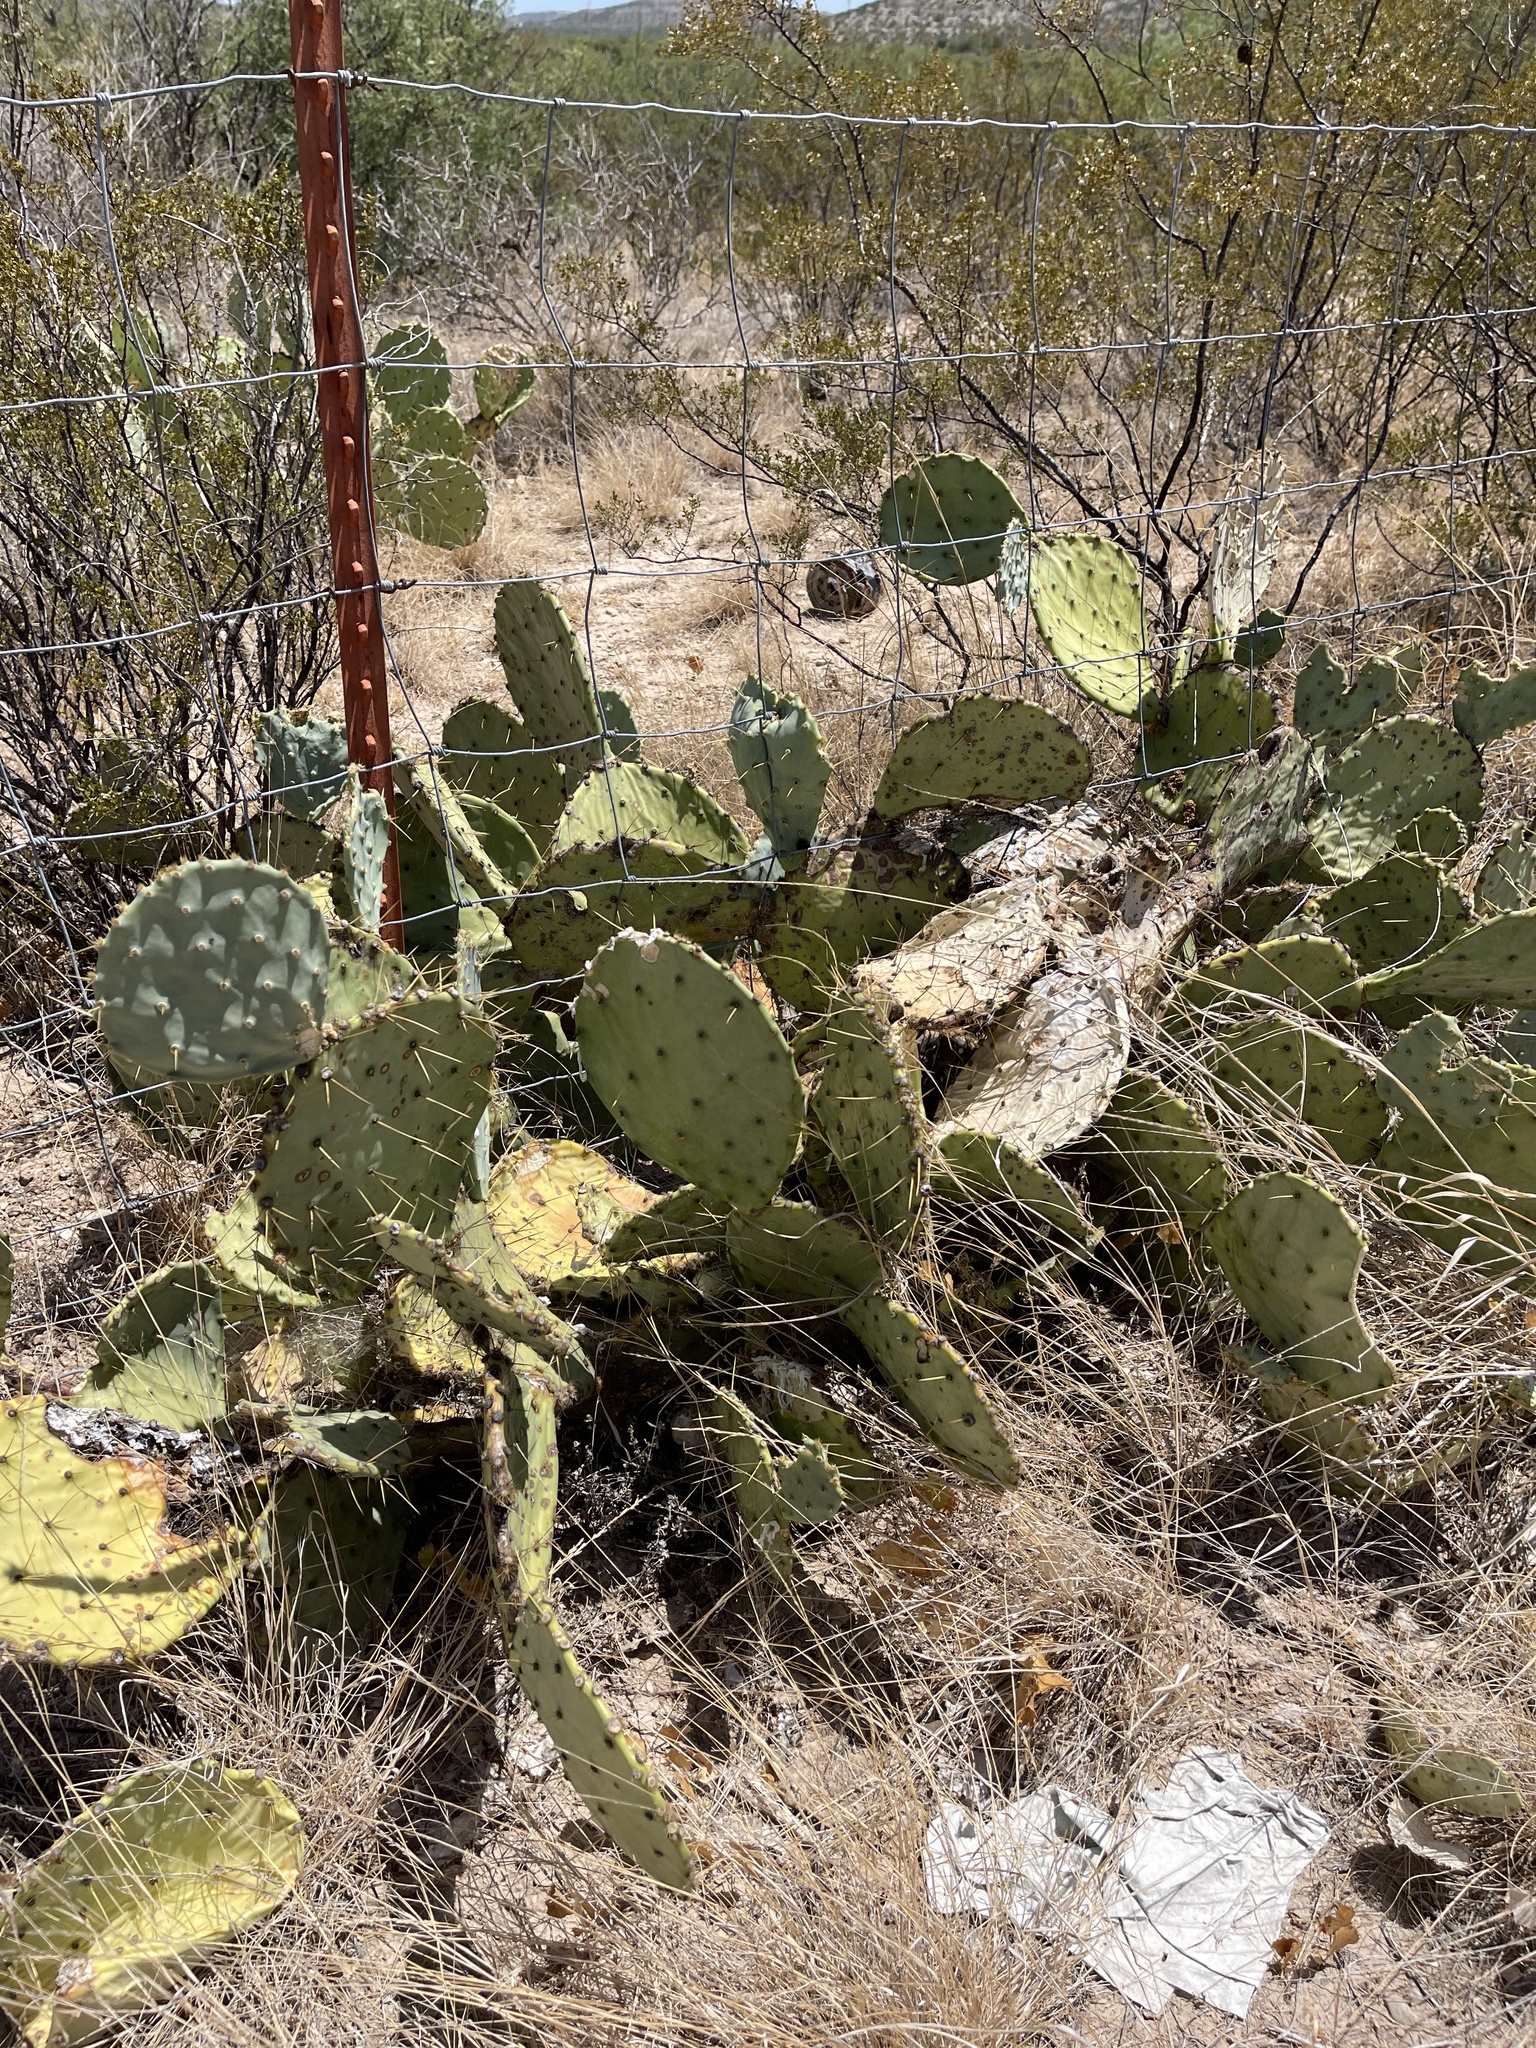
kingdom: Plantae
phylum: Tracheophyta
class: Magnoliopsida
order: Caryophyllales
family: Cactaceae
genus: Opuntia
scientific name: Opuntia engelmannii
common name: Cactus-apple
